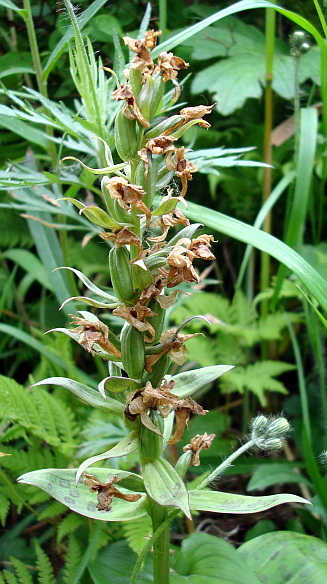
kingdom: Plantae
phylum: Tracheophyta
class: Liliopsida
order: Asparagales
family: Orchidaceae
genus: Dactylorhiza
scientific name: Dactylorhiza aristata
